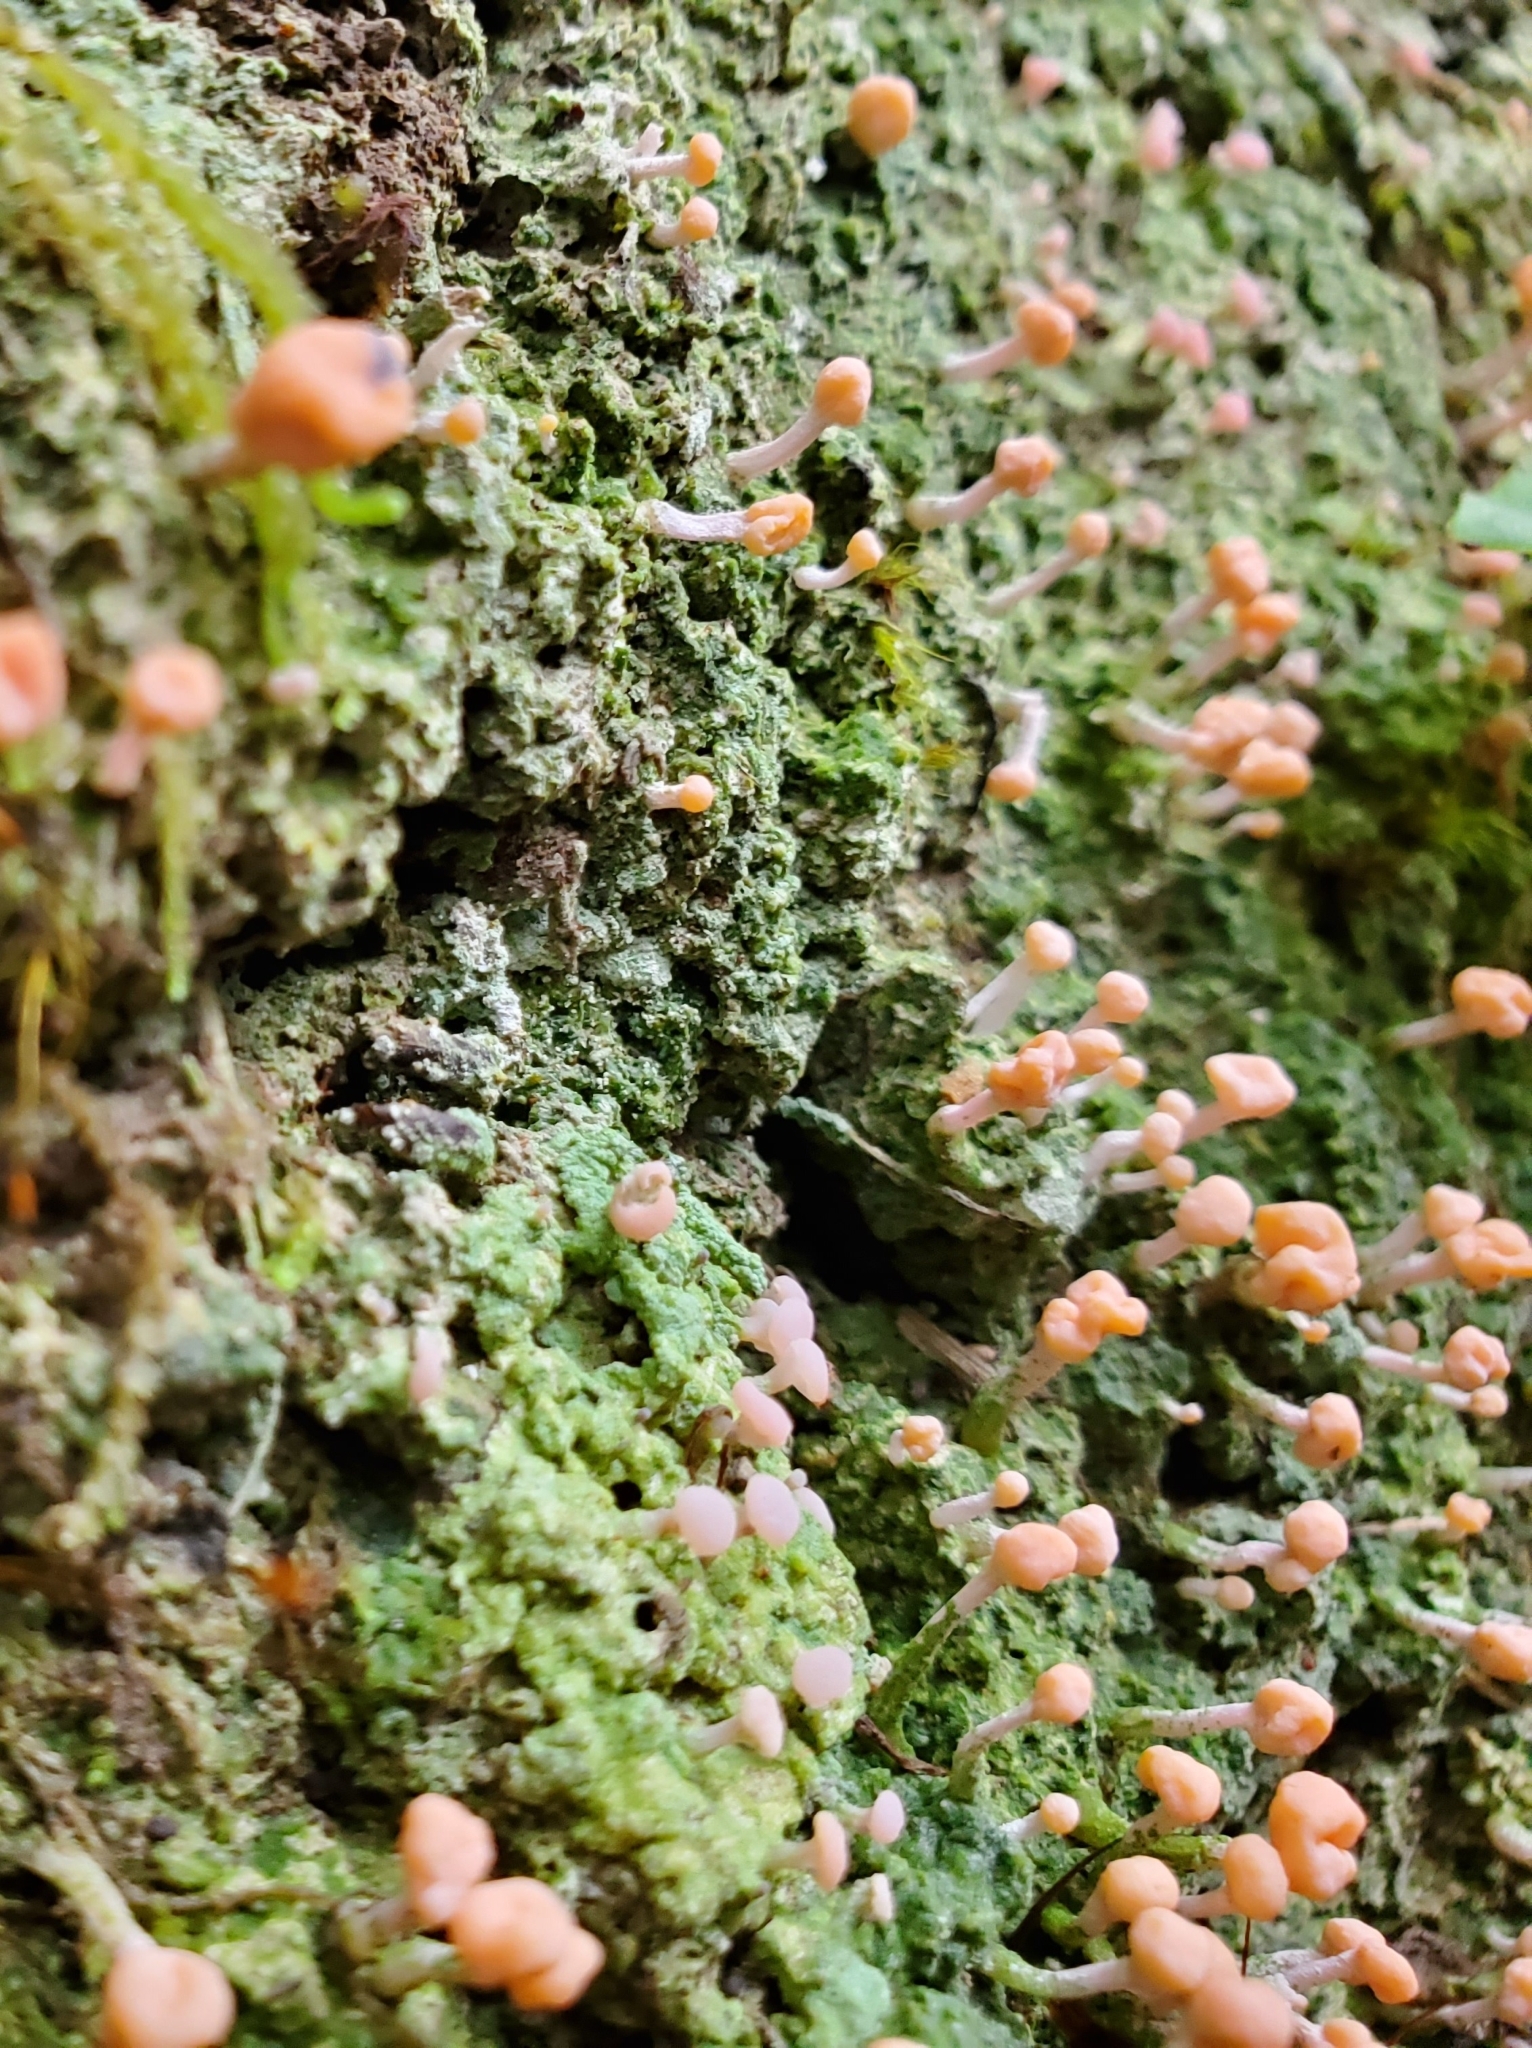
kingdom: Fungi
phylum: Ascomycota
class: Lecanoromycetes
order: Pertusariales
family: Icmadophilaceae
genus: Dibaeis
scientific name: Dibaeis arcuata
